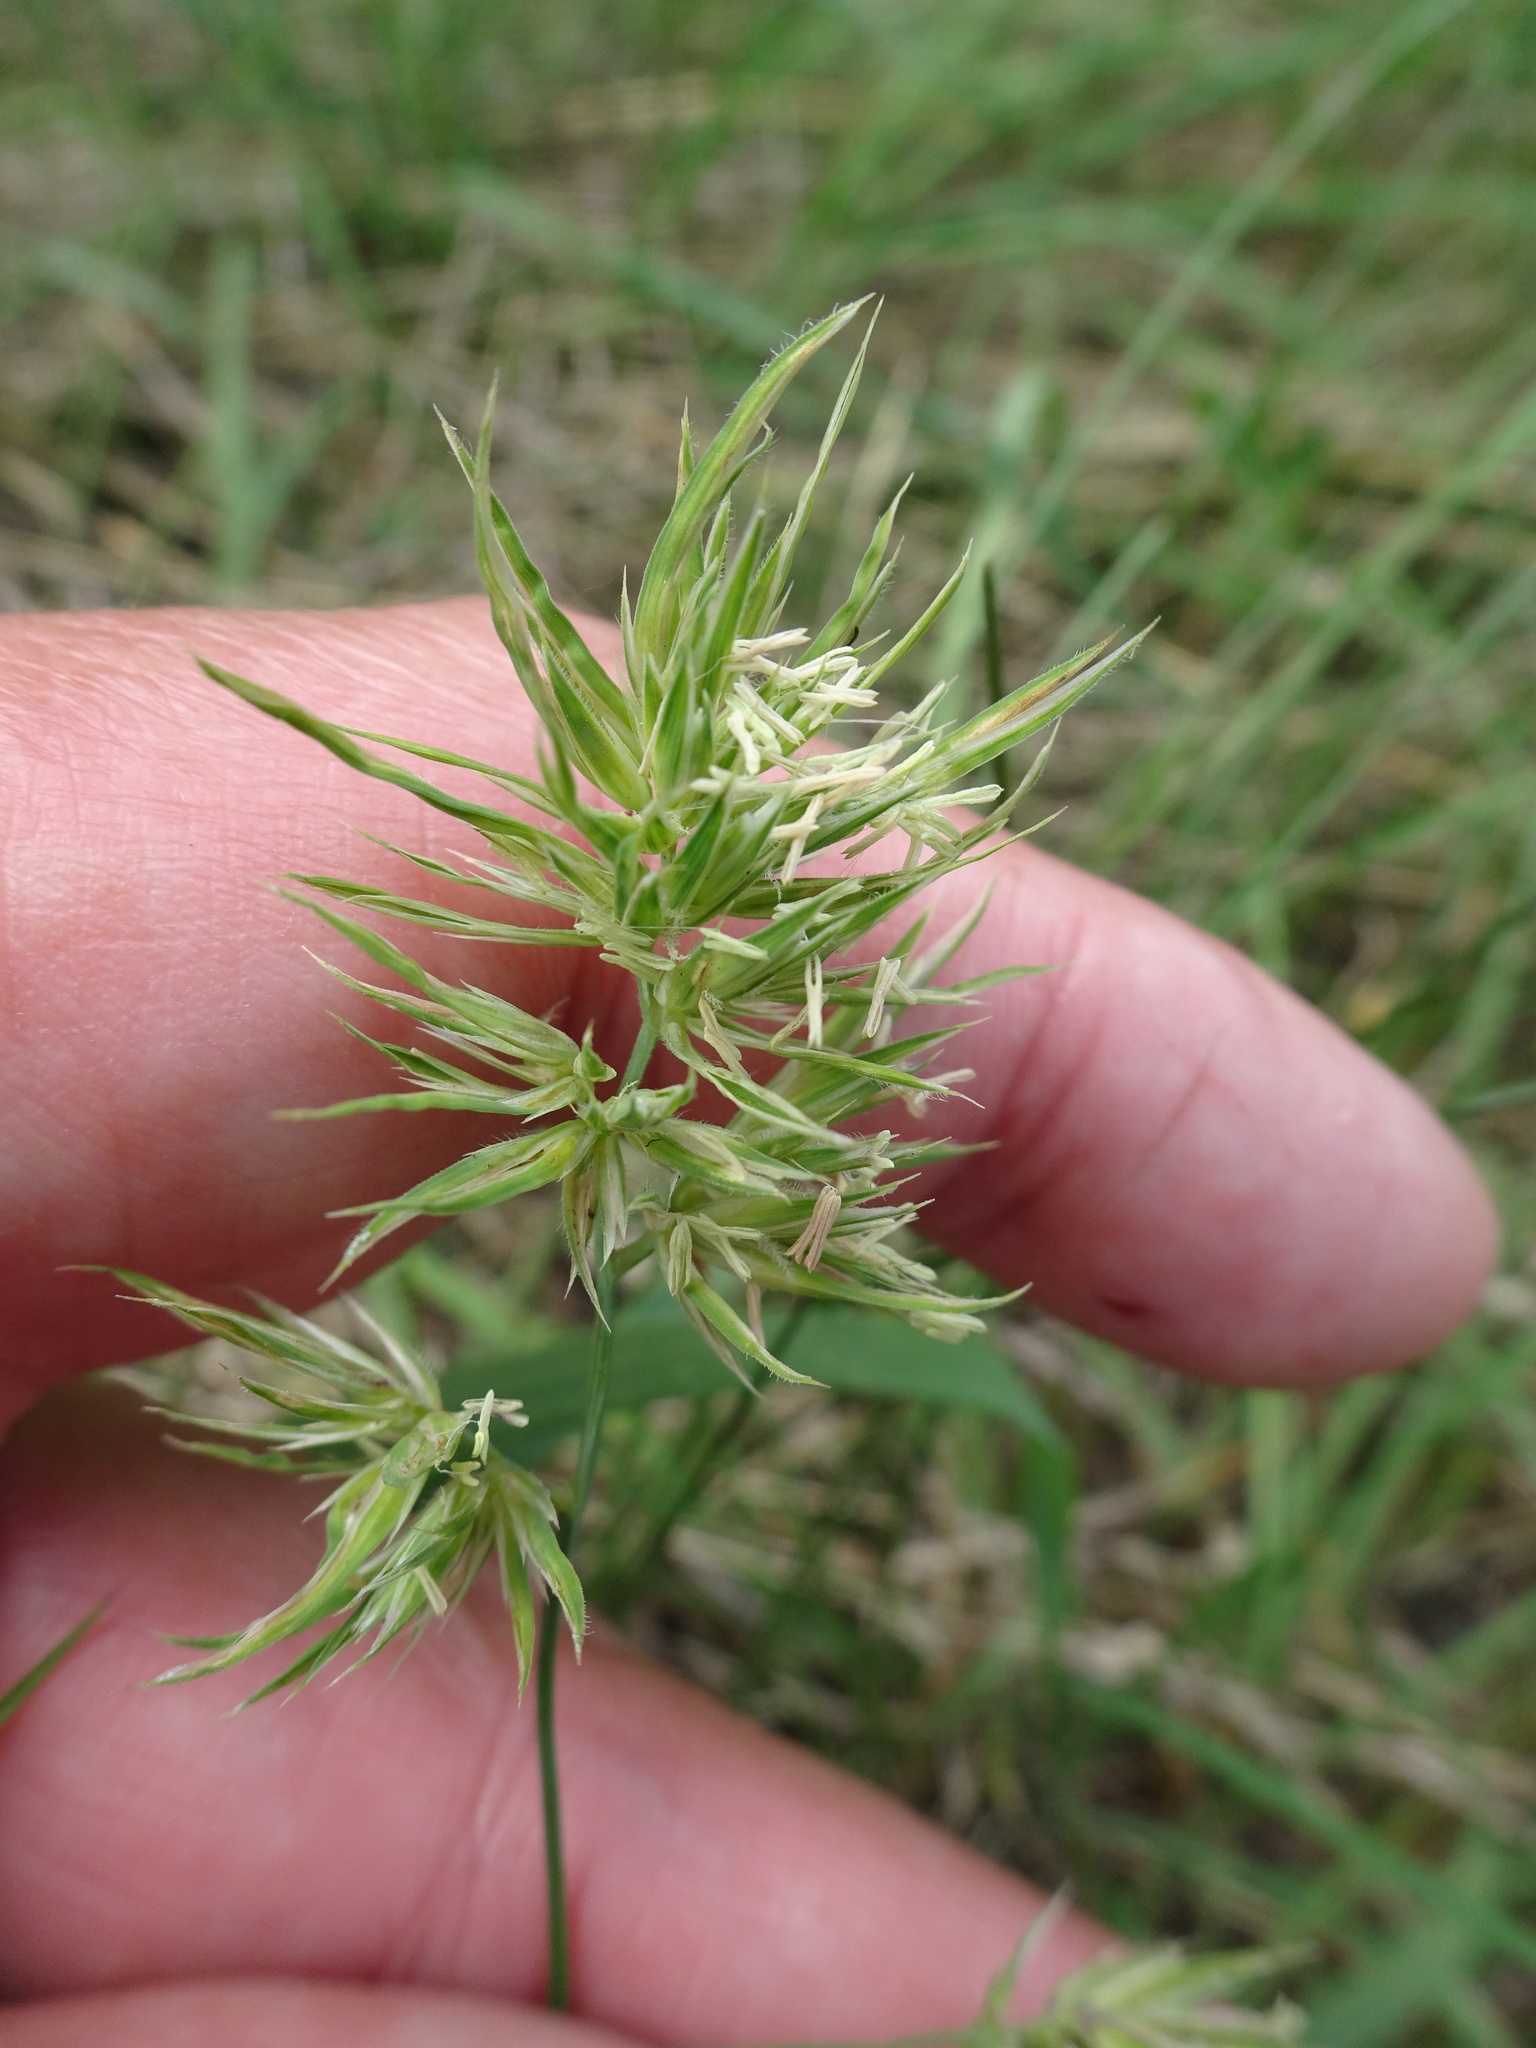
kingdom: Plantae
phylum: Tracheophyta
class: Liliopsida
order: Poales
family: Poaceae
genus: Dactylis
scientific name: Dactylis glomerata
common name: Orchardgrass
